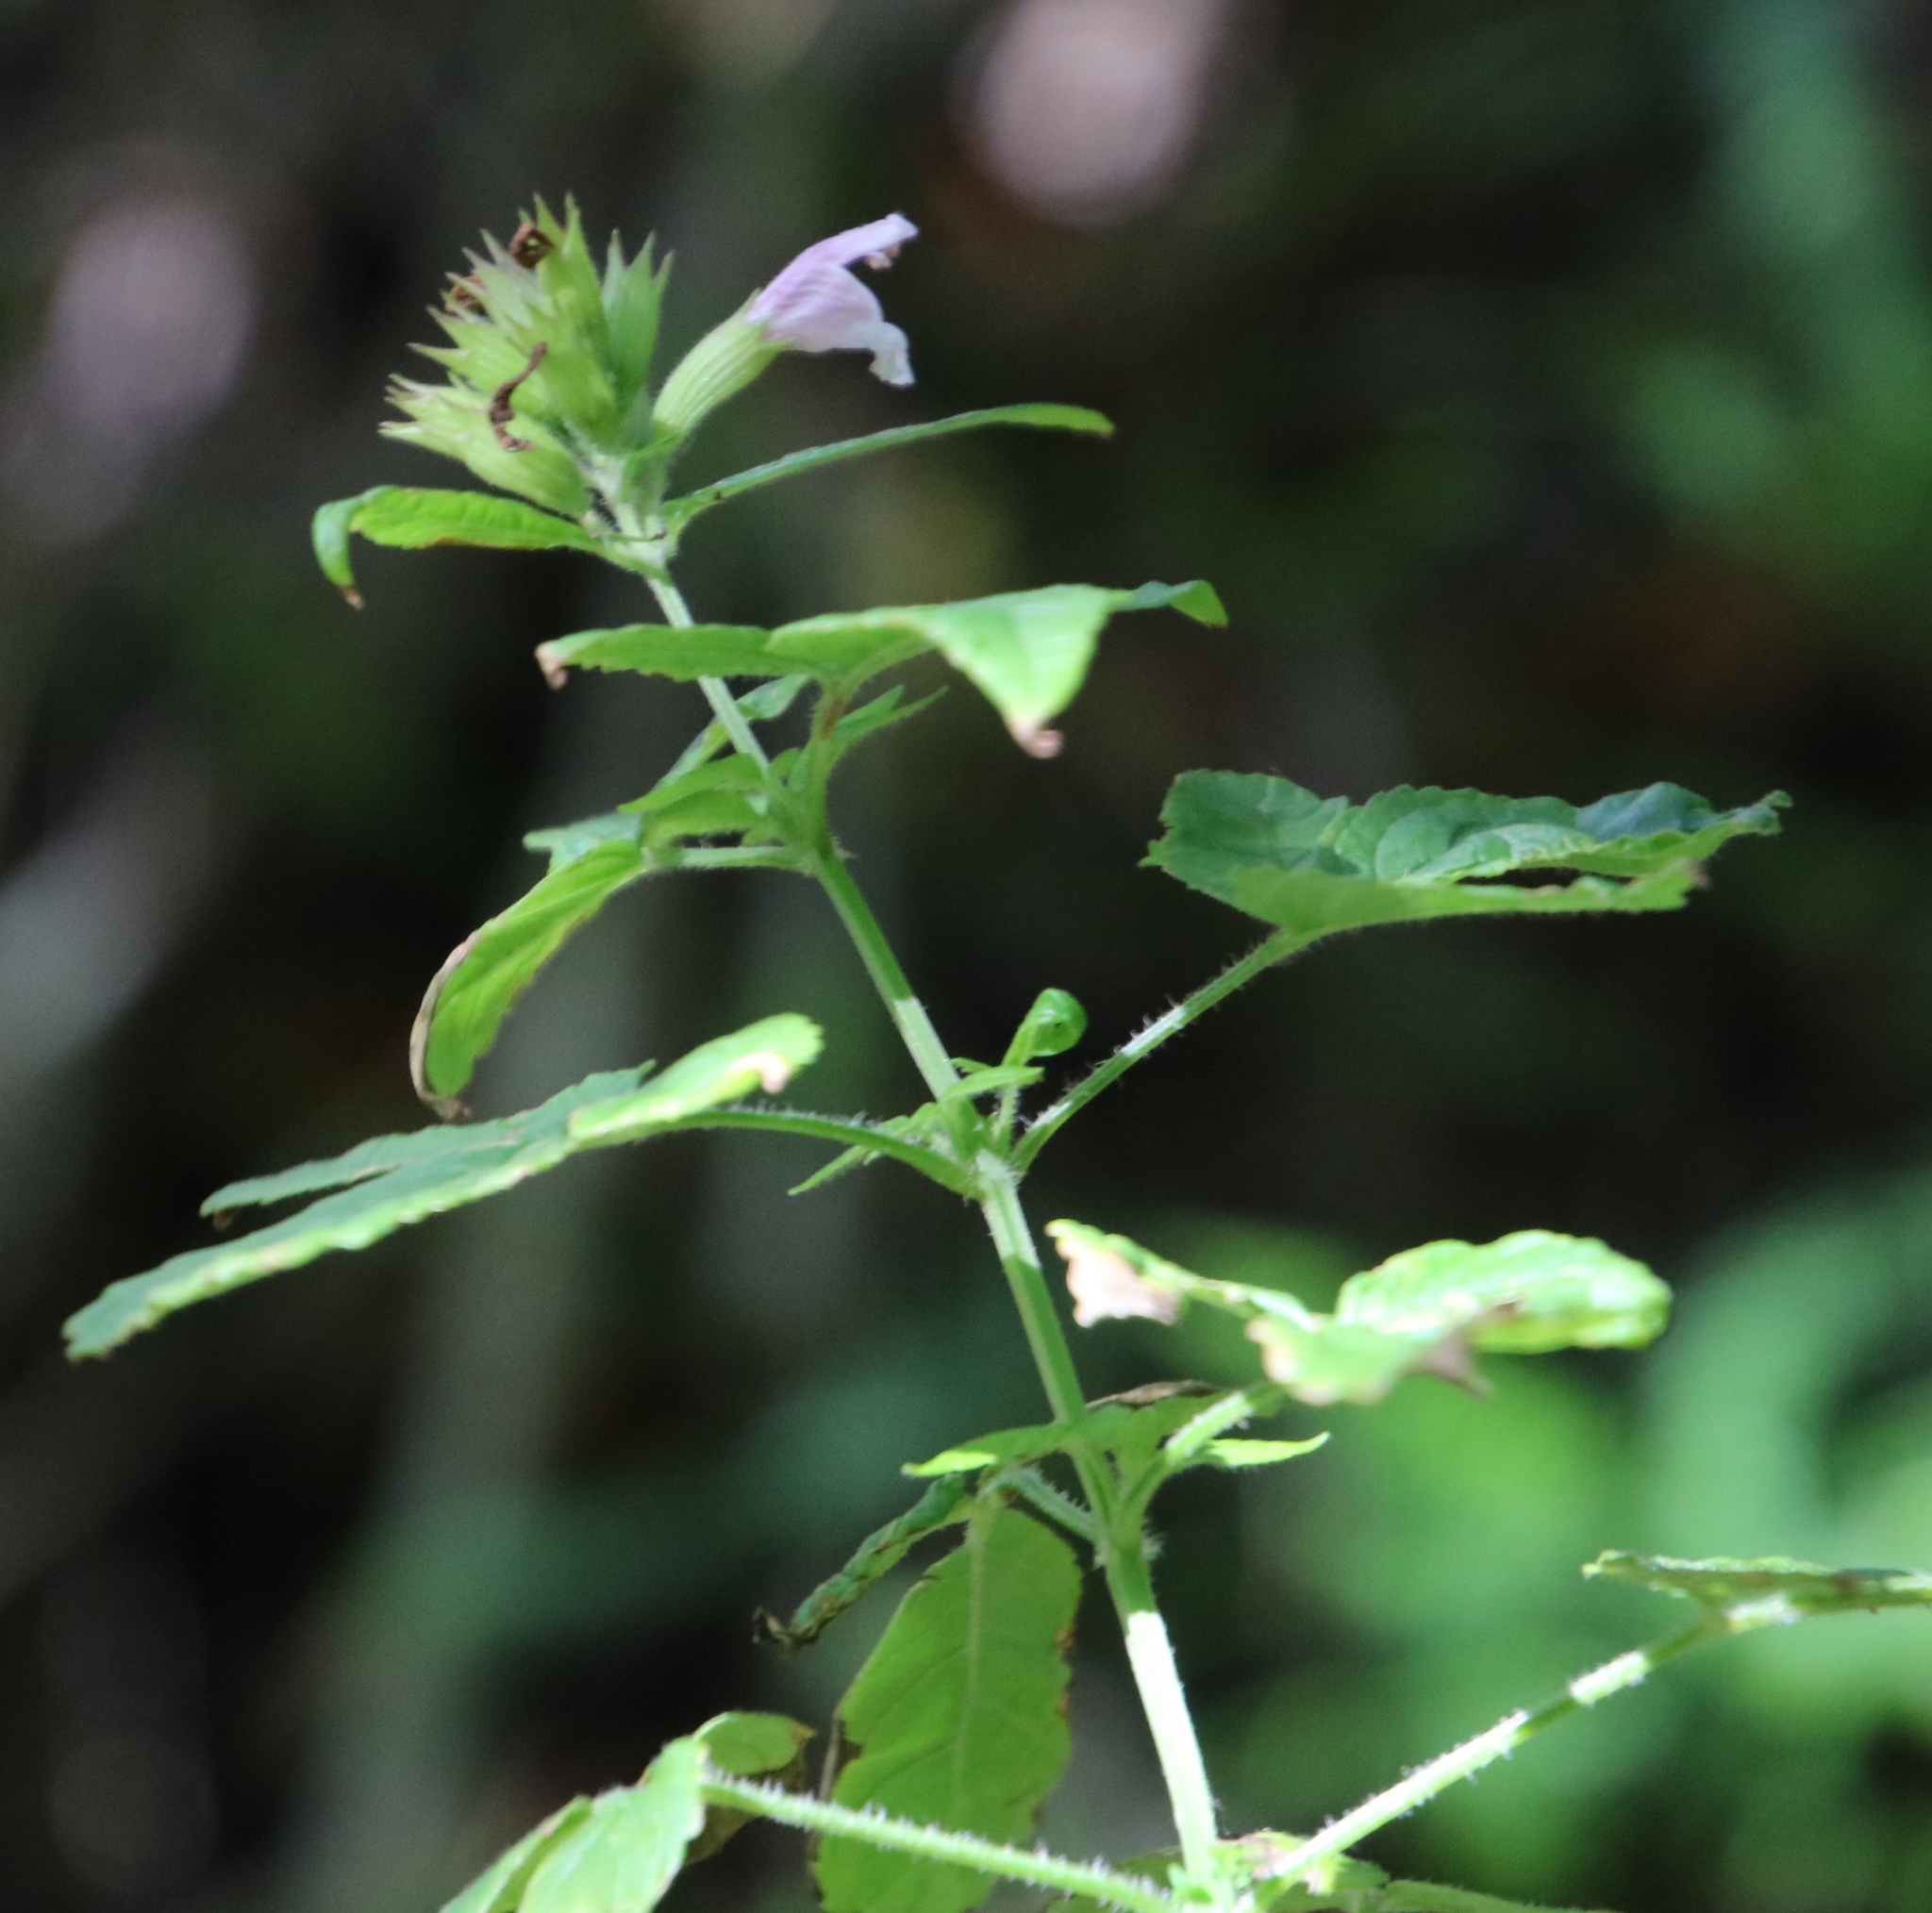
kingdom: Plantae
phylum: Tracheophyta
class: Magnoliopsida
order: Lamiales
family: Lamiaceae
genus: Cedronella
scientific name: Cedronella canariensis
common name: Canary islands balm
